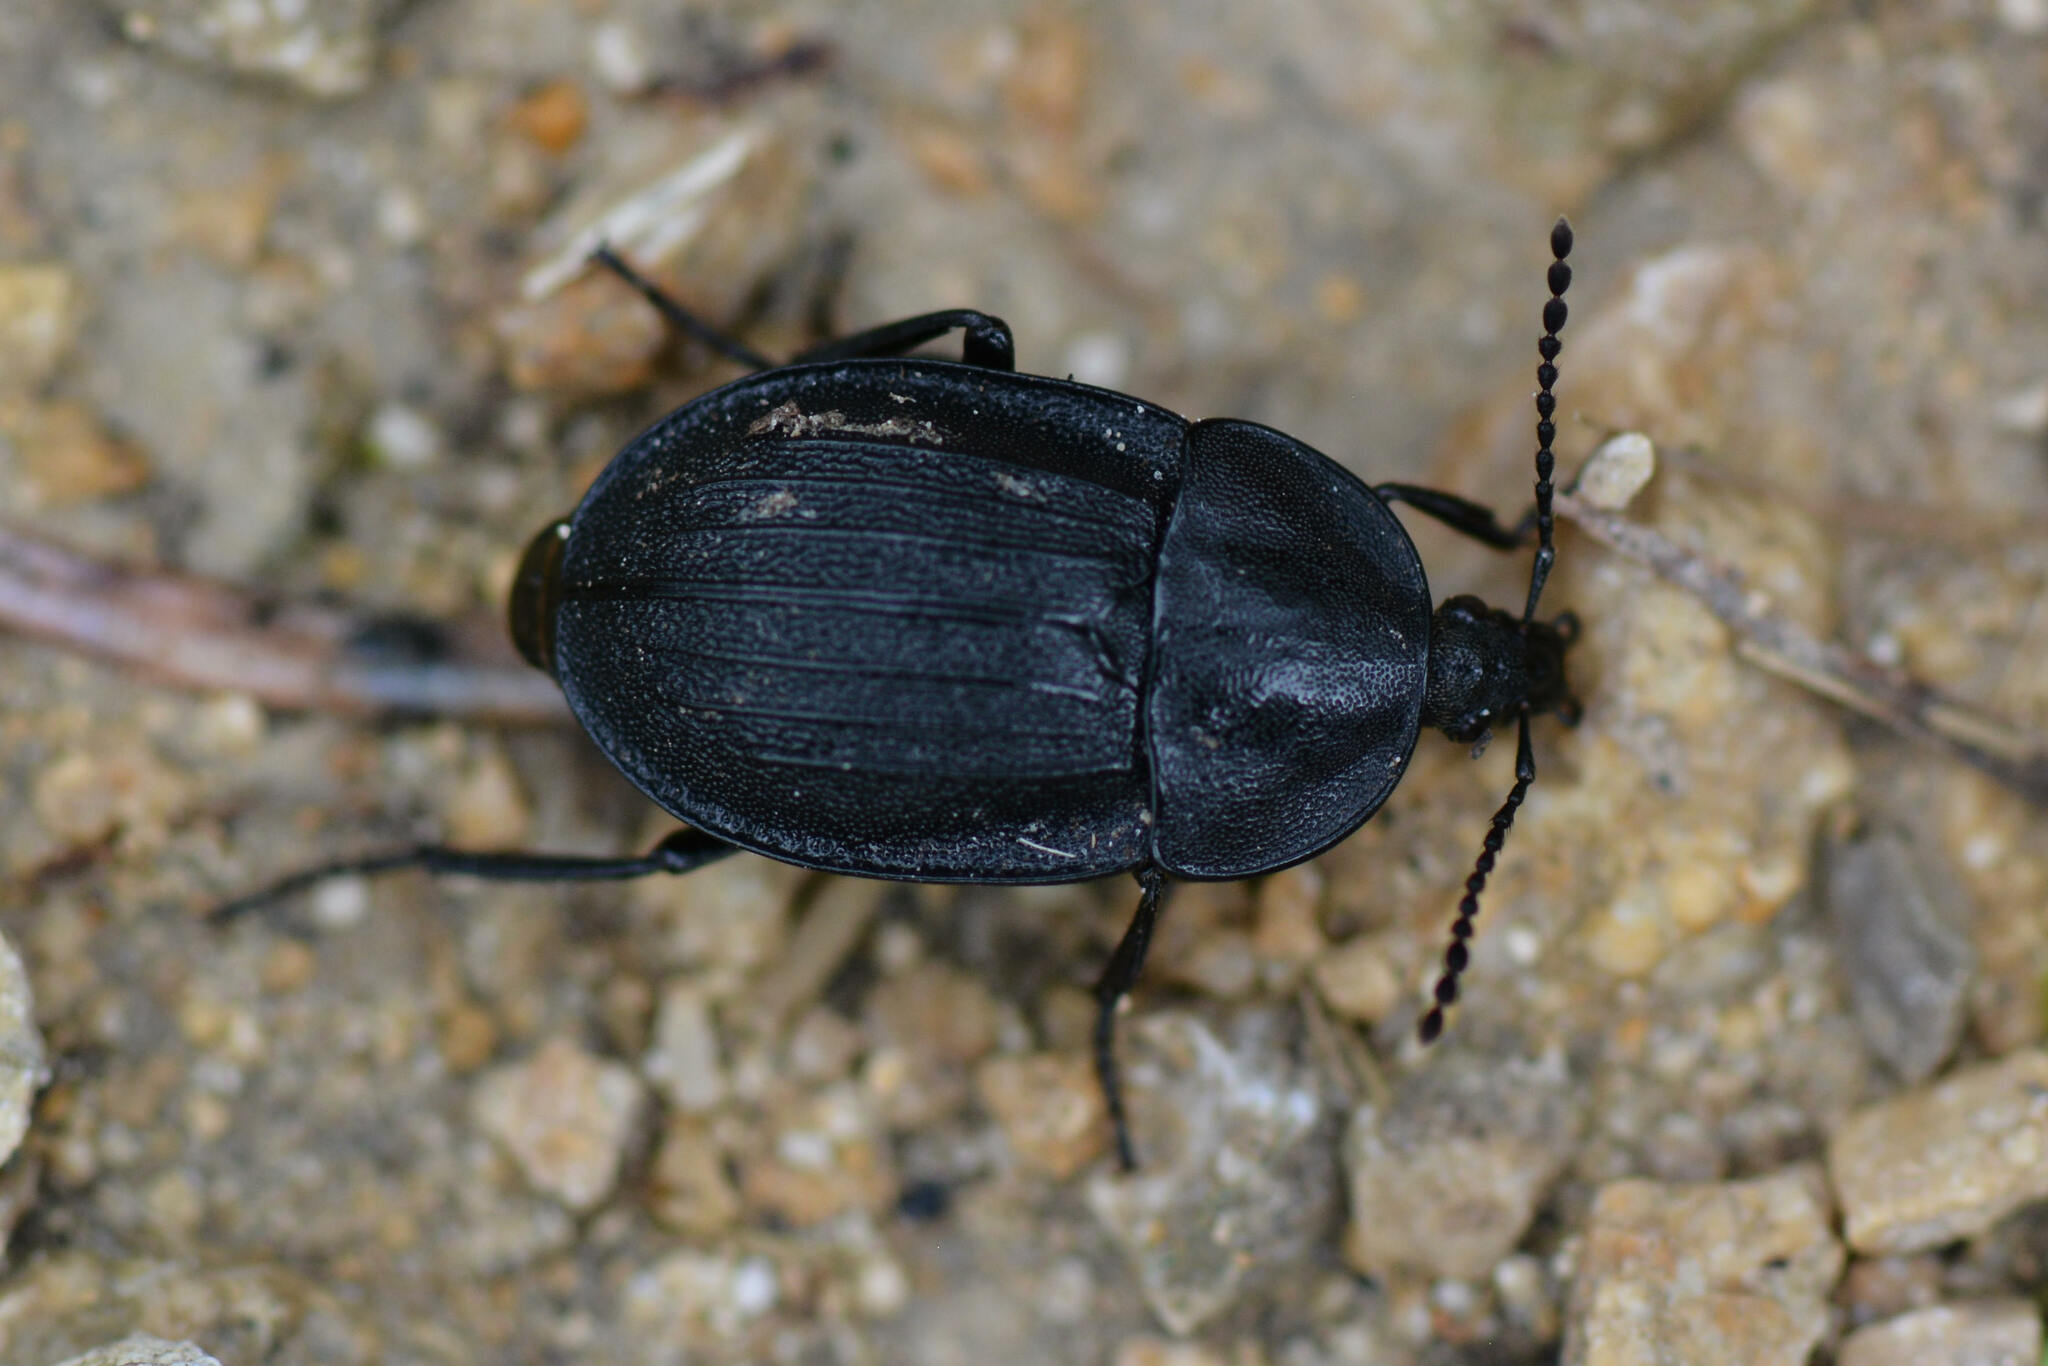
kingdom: Animalia
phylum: Arthropoda
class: Insecta
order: Coleoptera
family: Staphylinidae
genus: Silpha
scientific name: Silpha atrata
